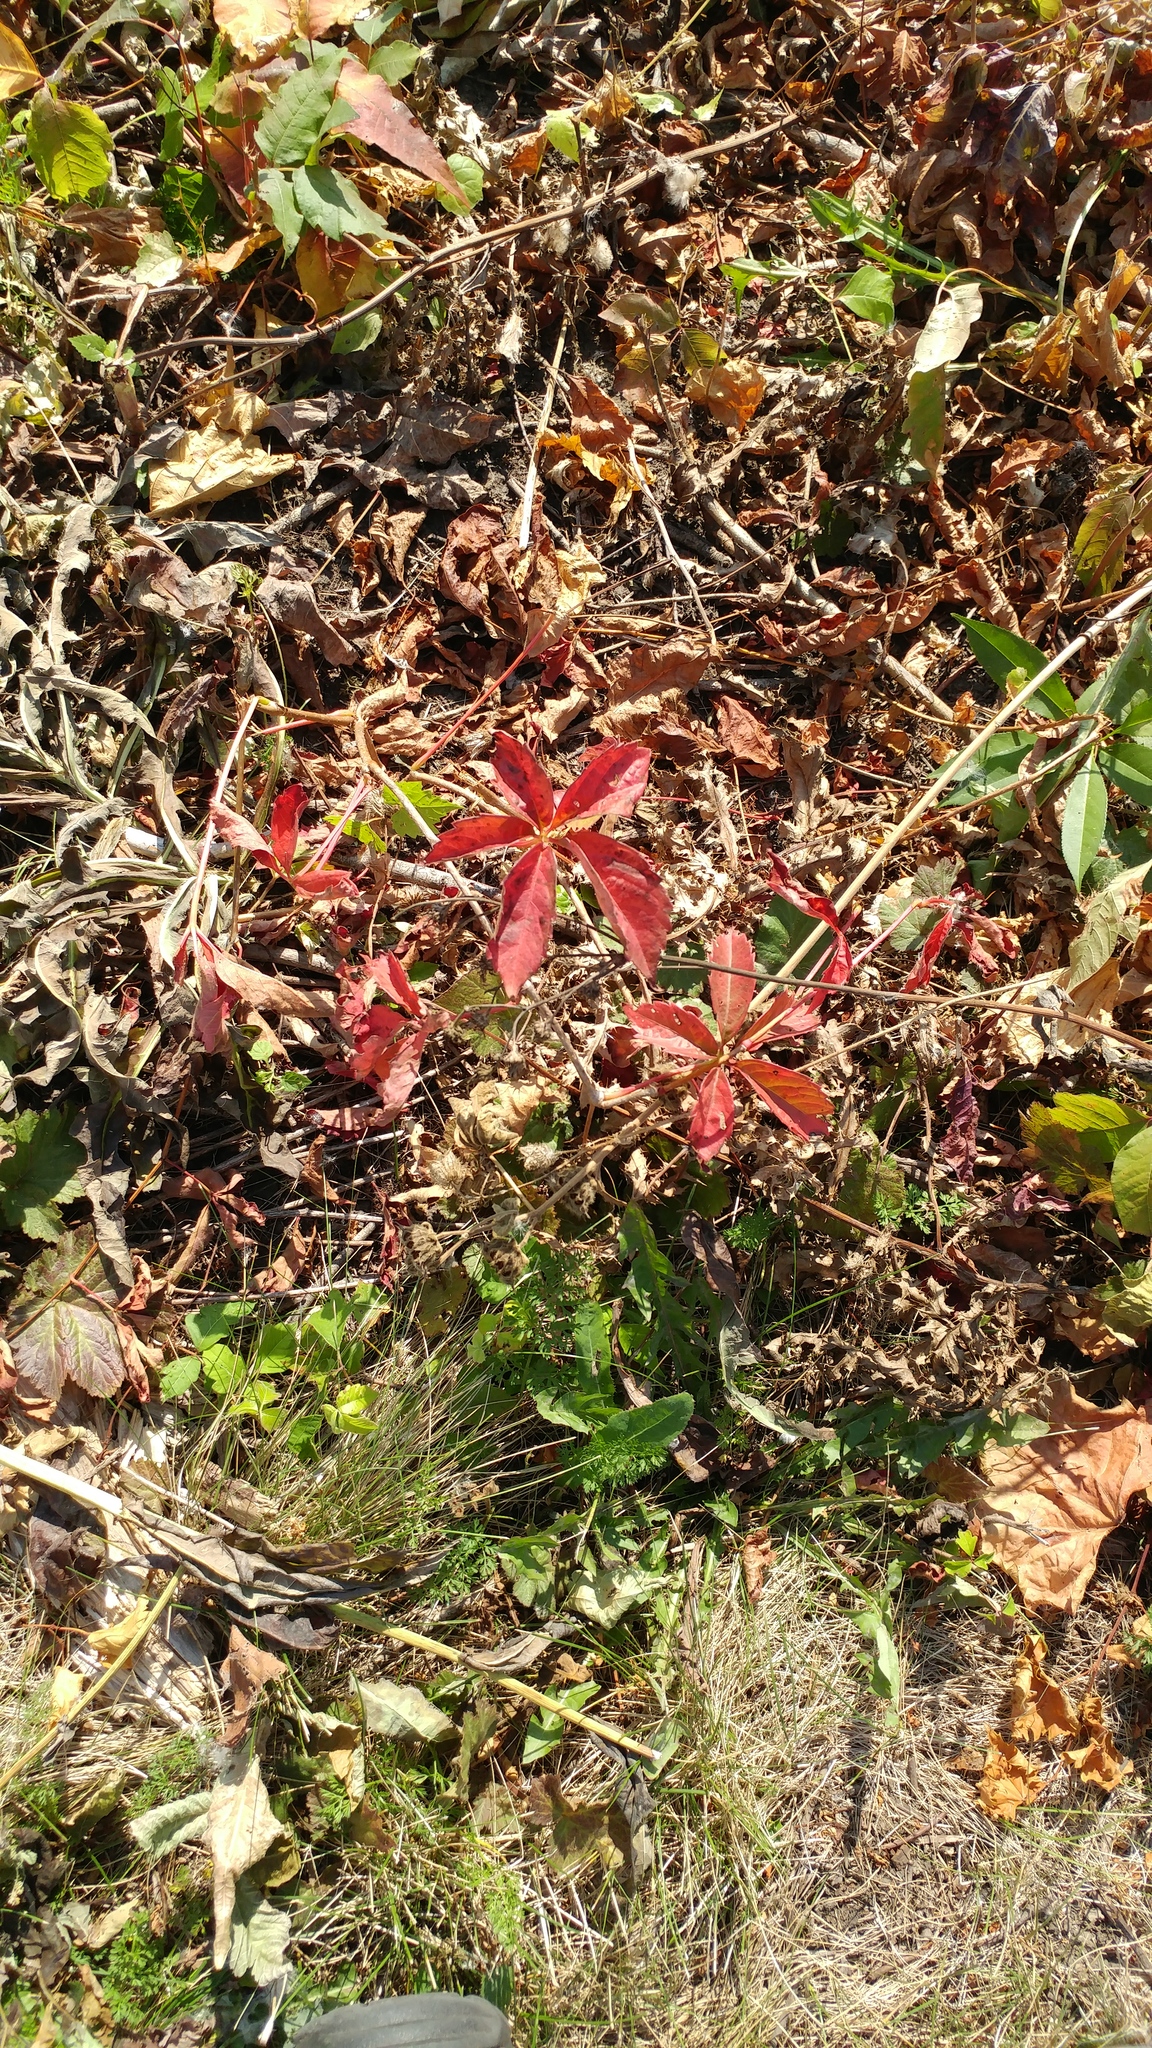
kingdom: Plantae
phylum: Tracheophyta
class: Magnoliopsida
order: Vitales
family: Vitaceae
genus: Parthenocissus
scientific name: Parthenocissus quinquefolia
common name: Virginia-creeper
